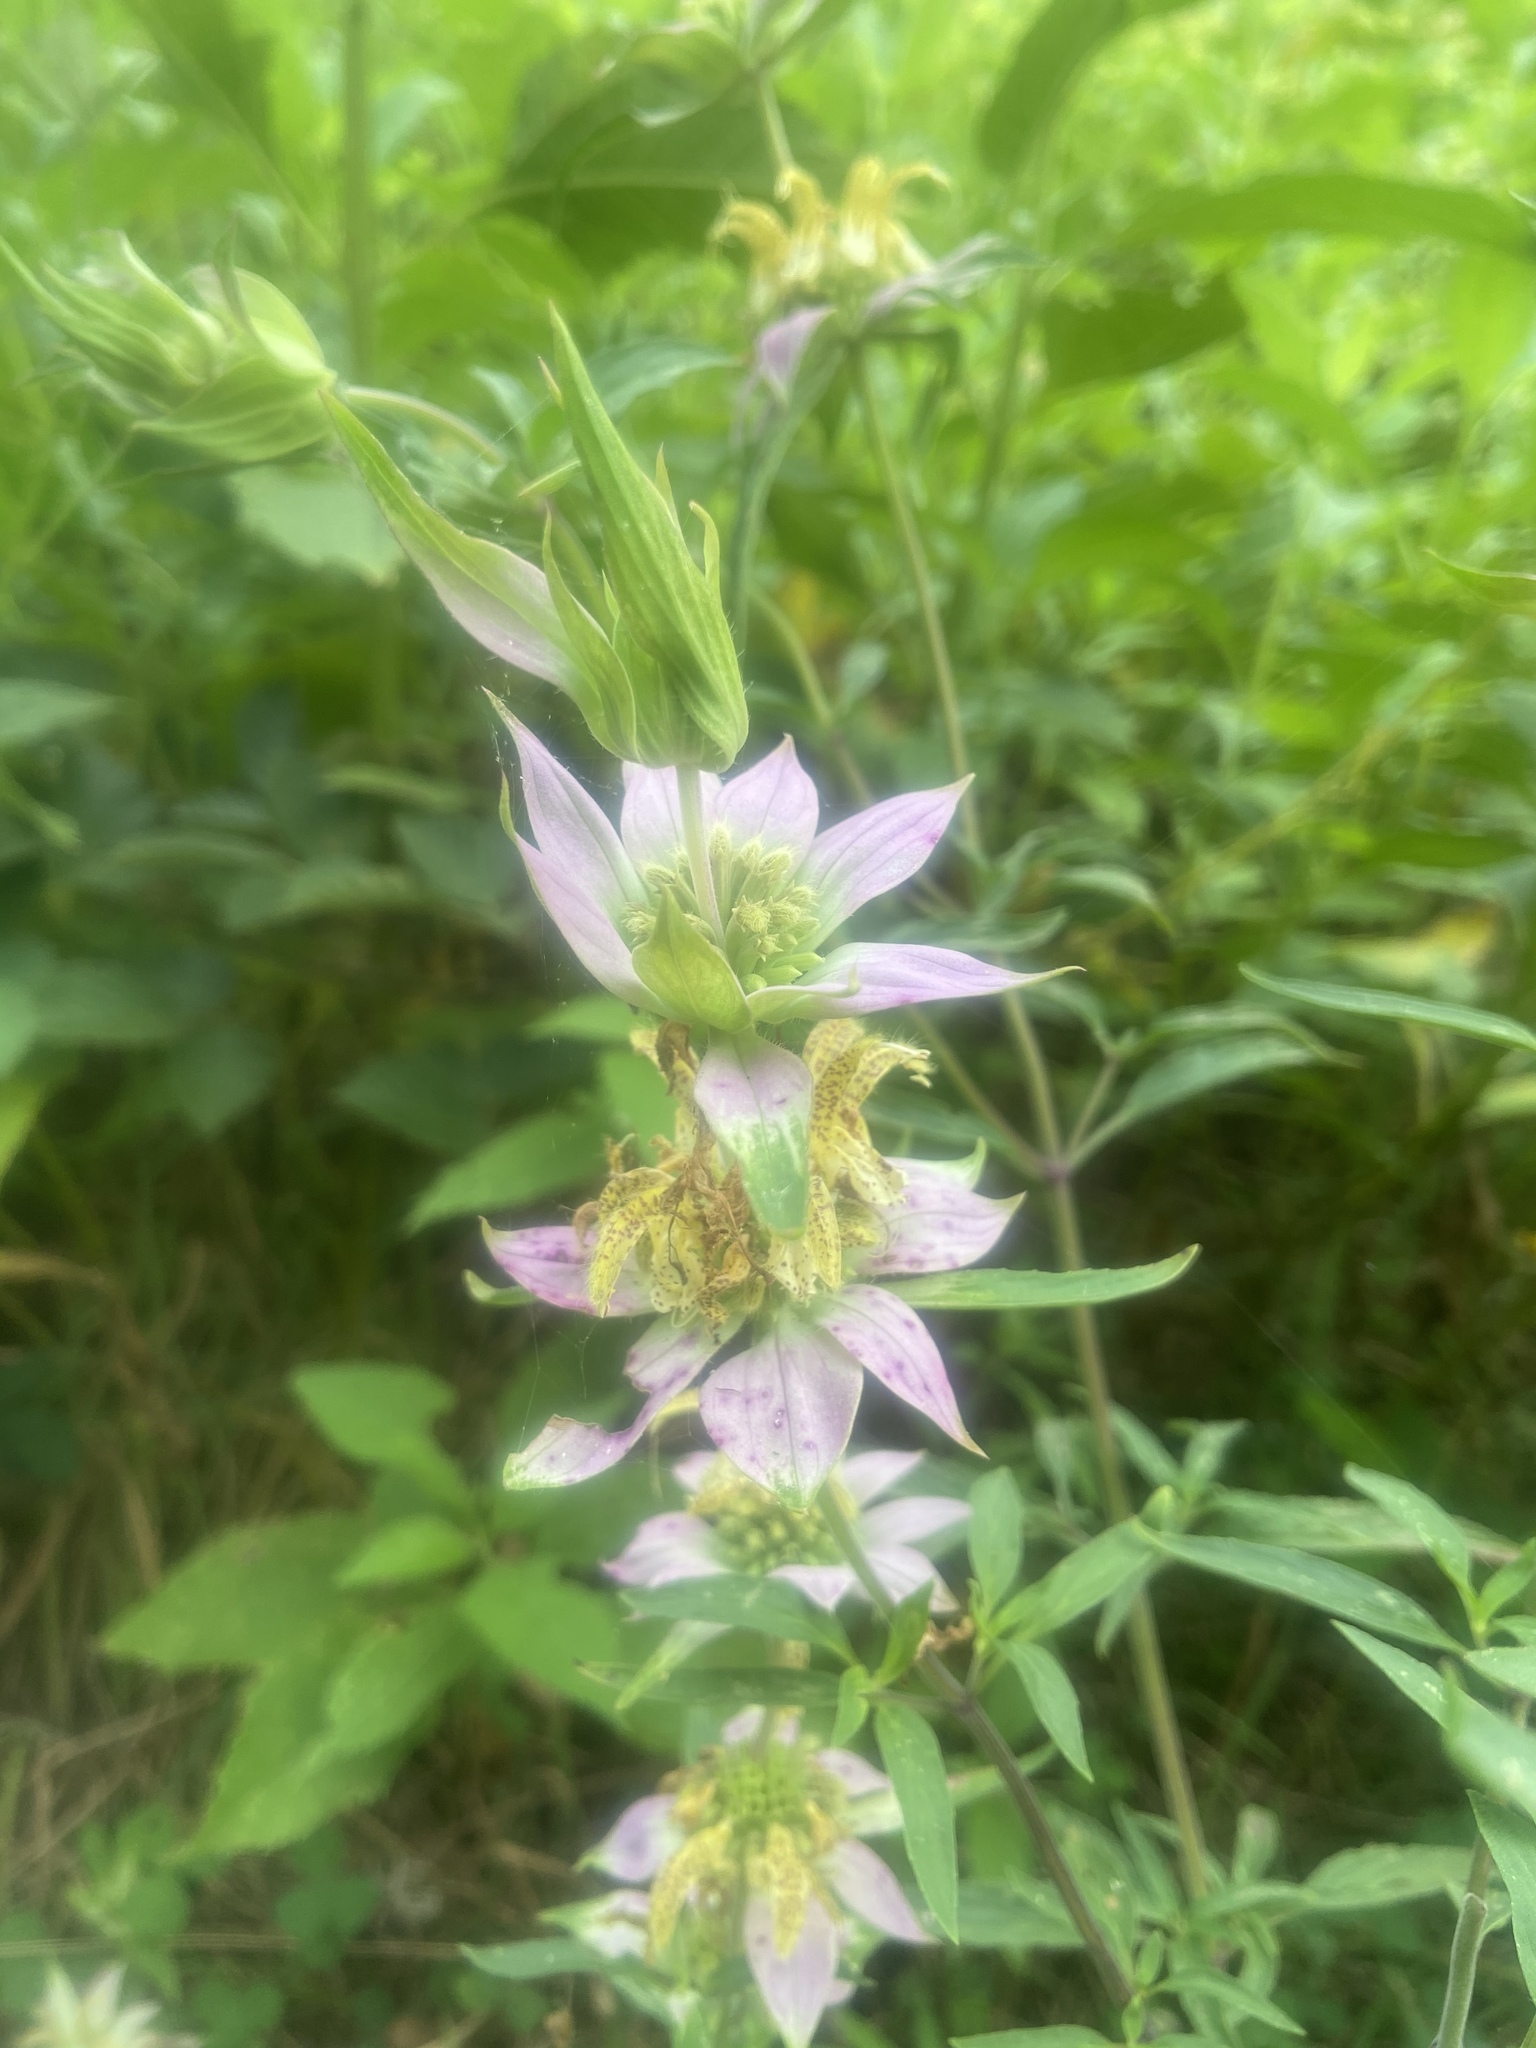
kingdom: Plantae
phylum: Tracheophyta
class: Magnoliopsida
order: Lamiales
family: Lamiaceae
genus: Monarda
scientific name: Monarda punctata
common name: Dotted monarda
